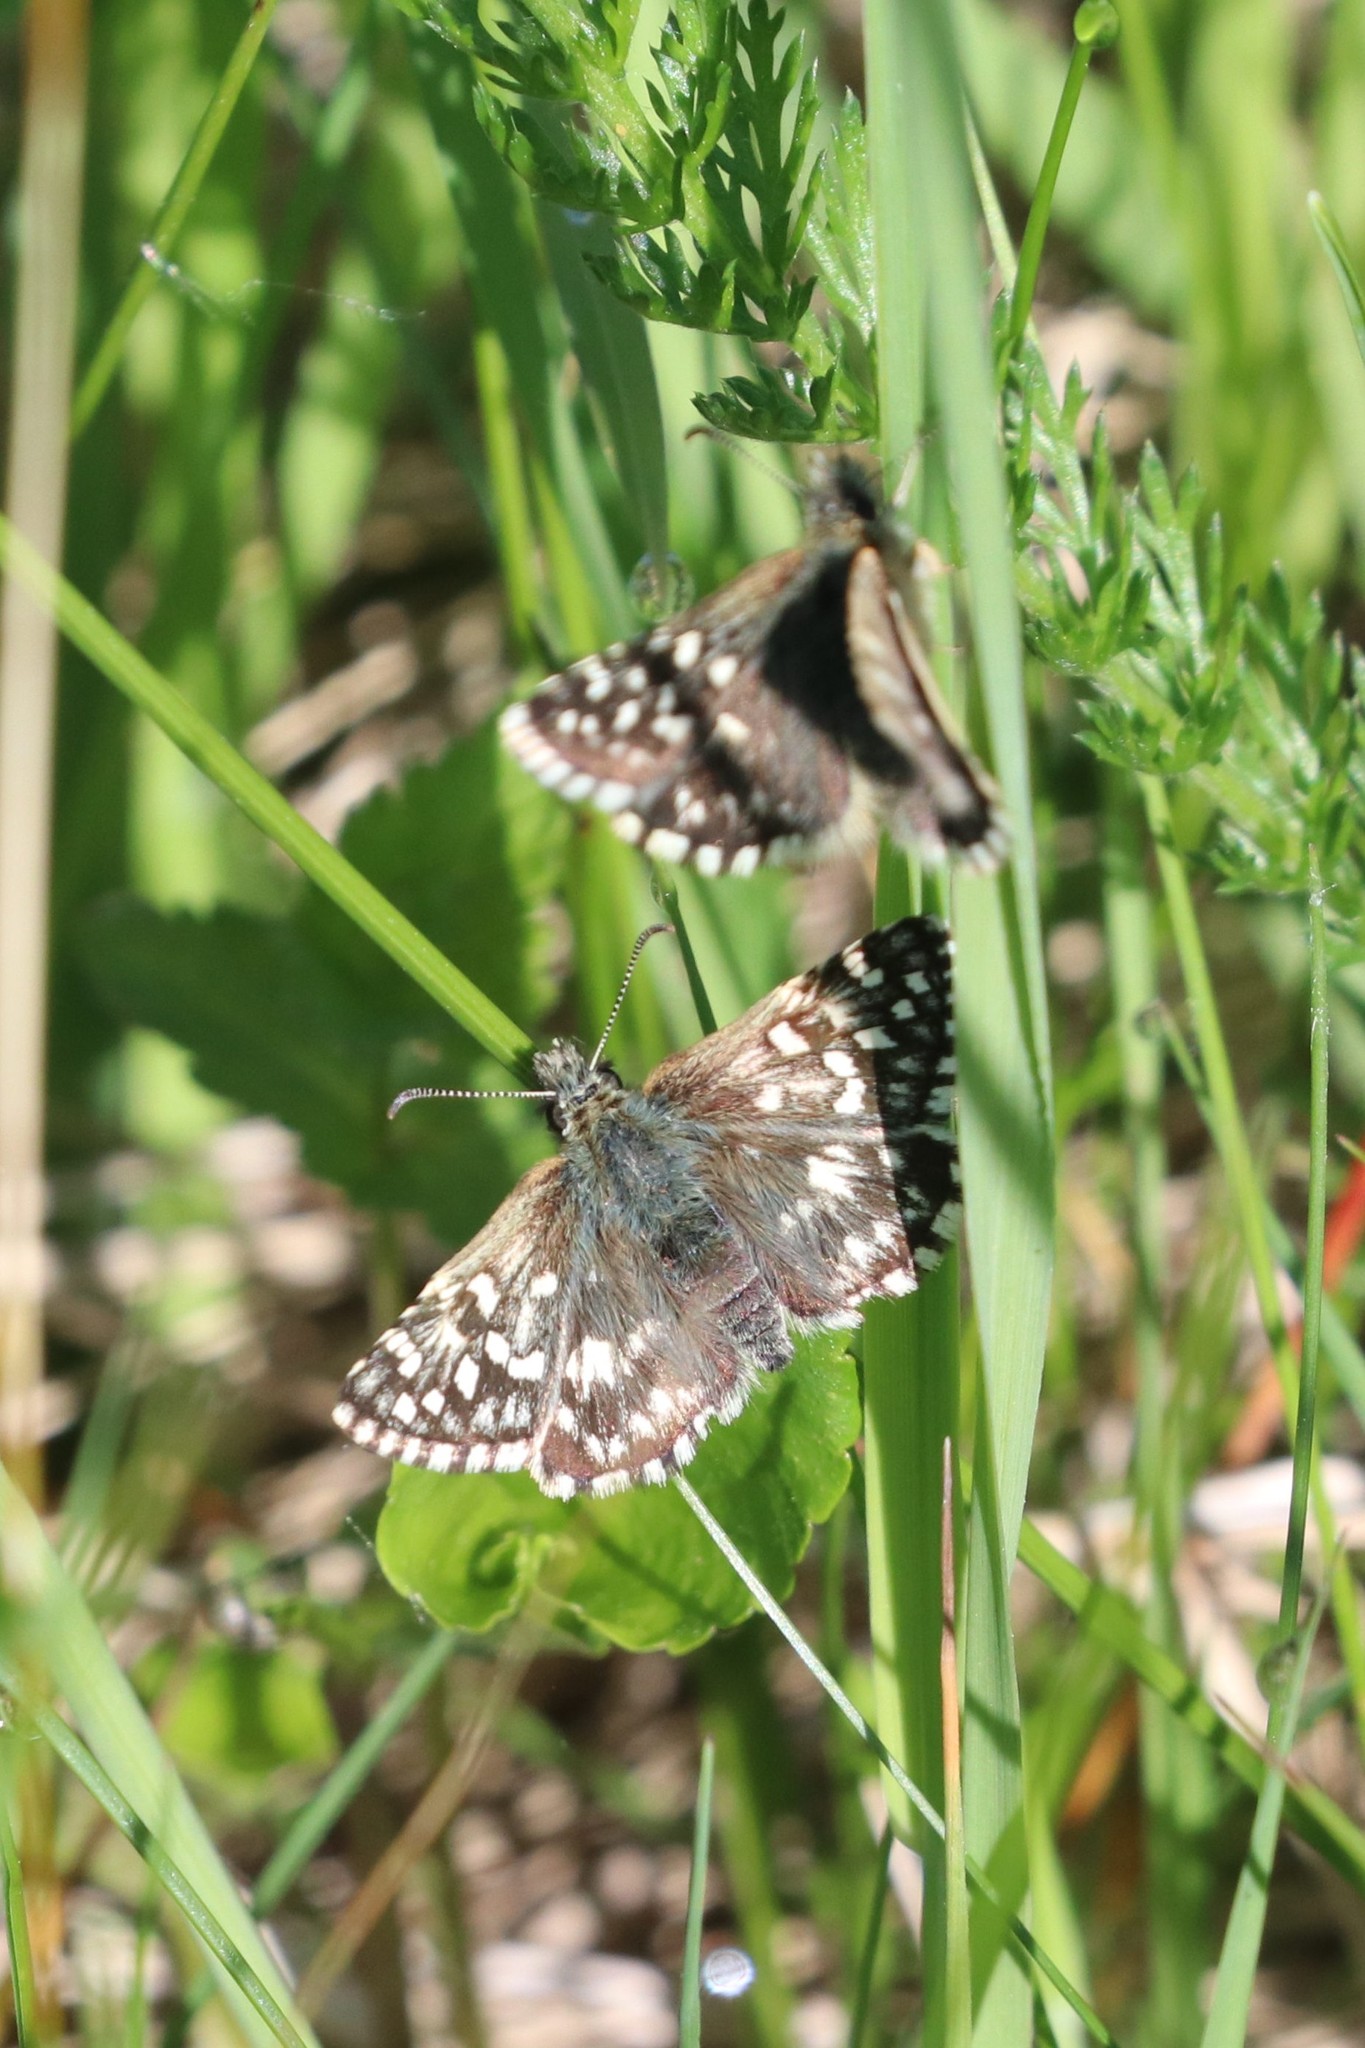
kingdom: Animalia
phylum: Arthropoda
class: Insecta
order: Lepidoptera
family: Hesperiidae
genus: Pyrgus
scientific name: Pyrgus malvae
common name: Grizzled skipper
